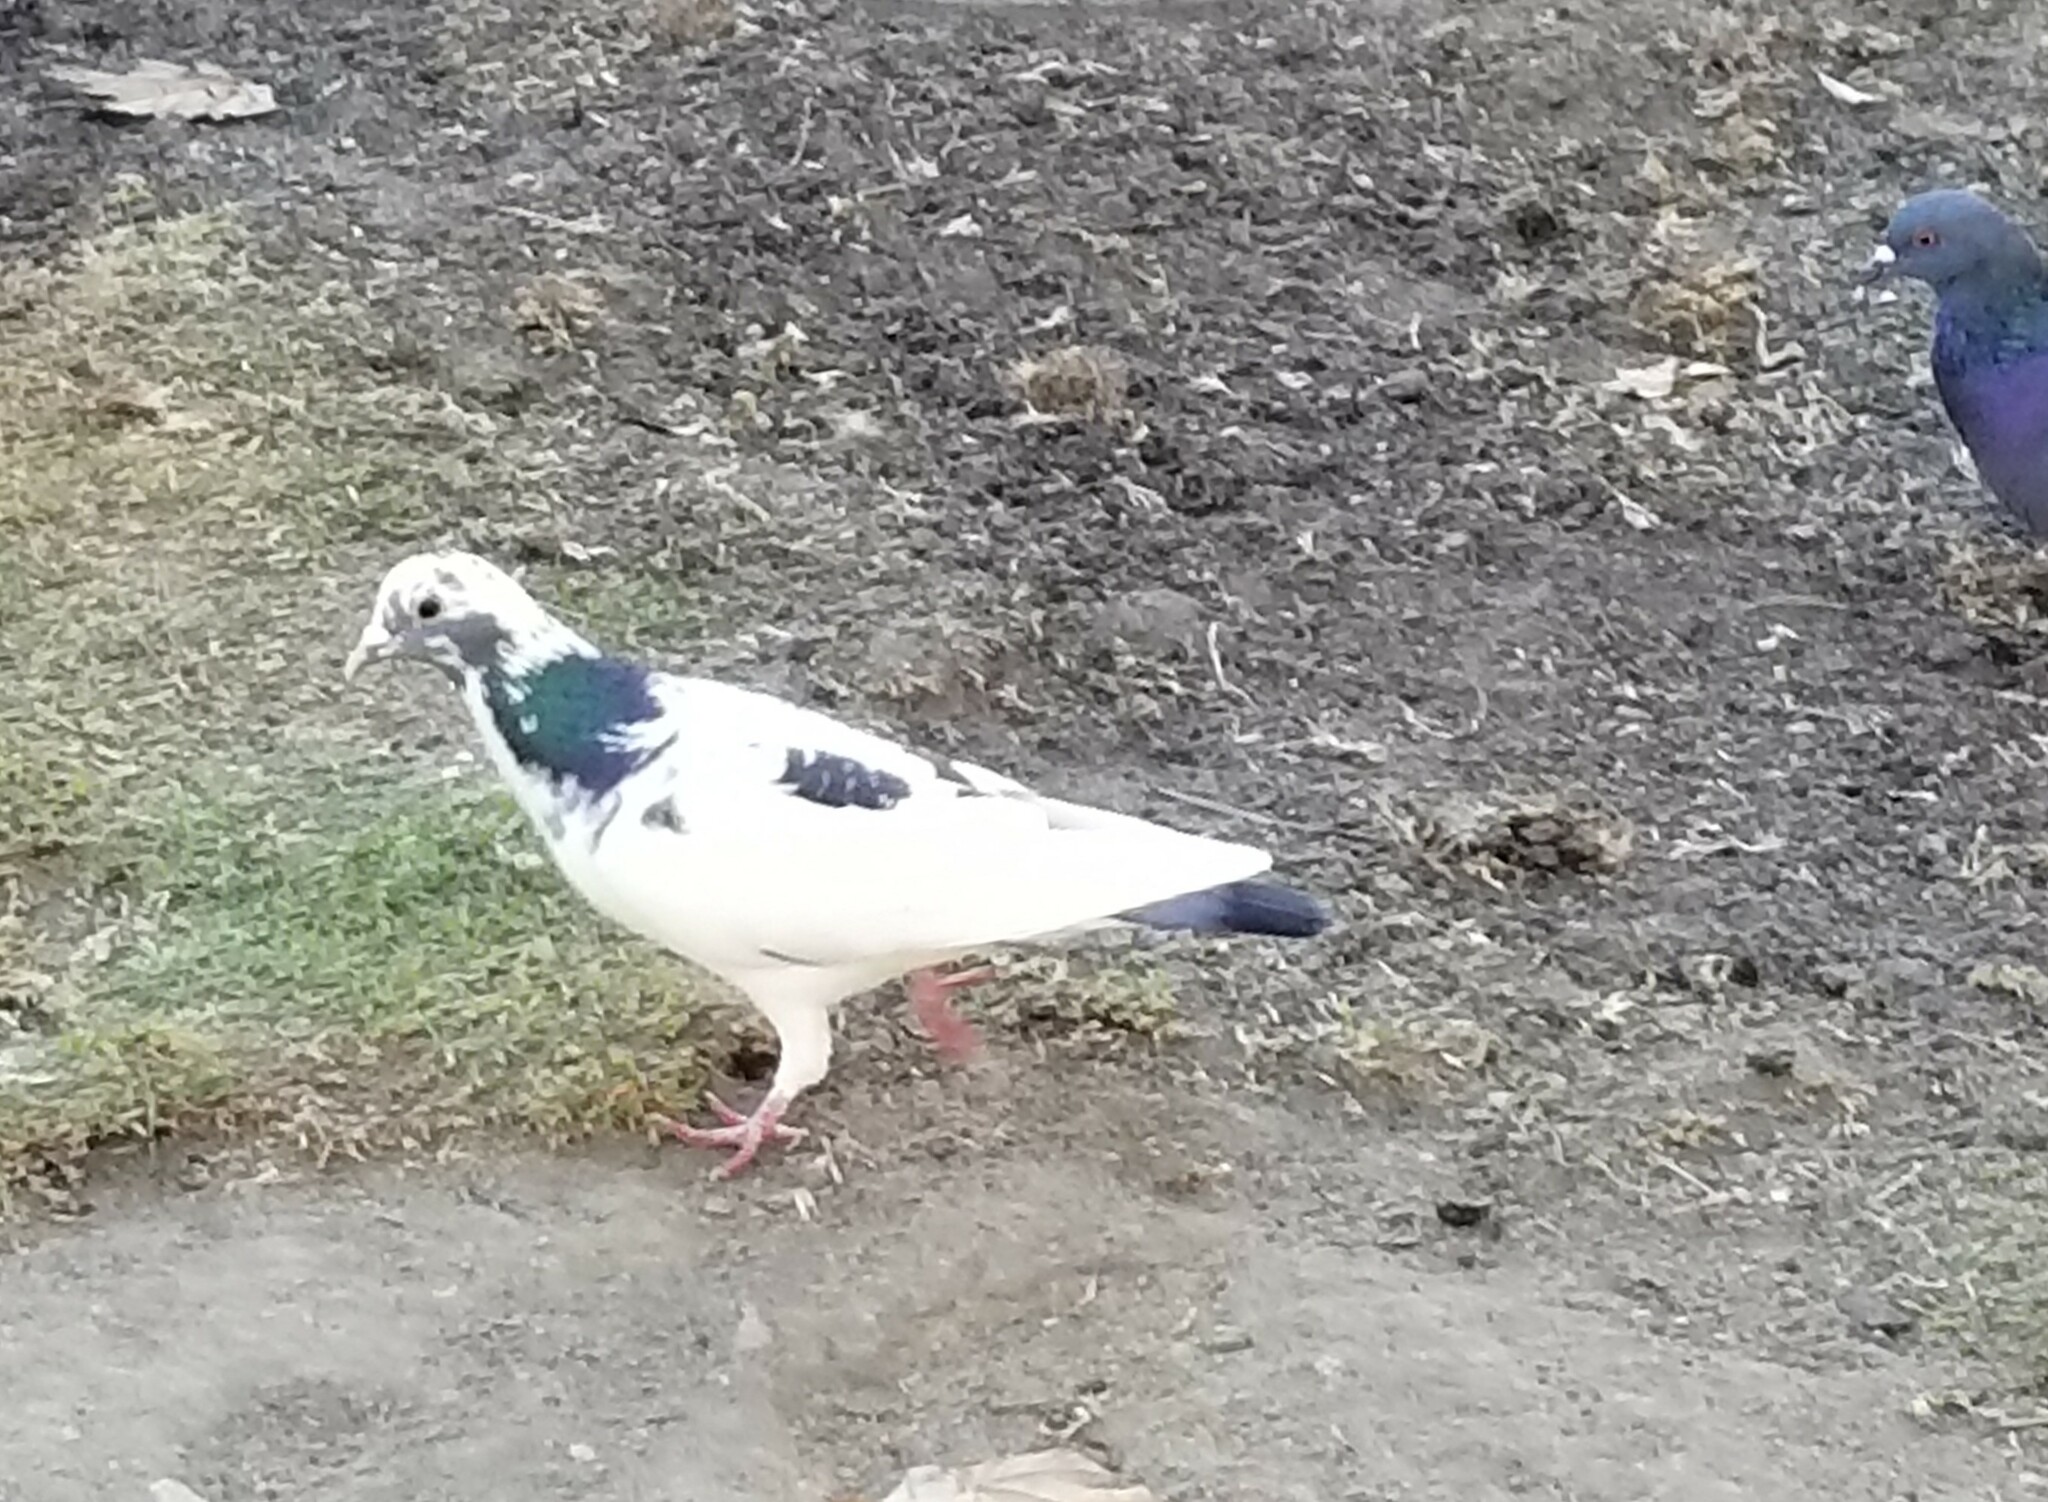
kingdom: Animalia
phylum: Chordata
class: Aves
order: Columbiformes
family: Columbidae
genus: Columba
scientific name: Columba livia
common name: Rock pigeon
